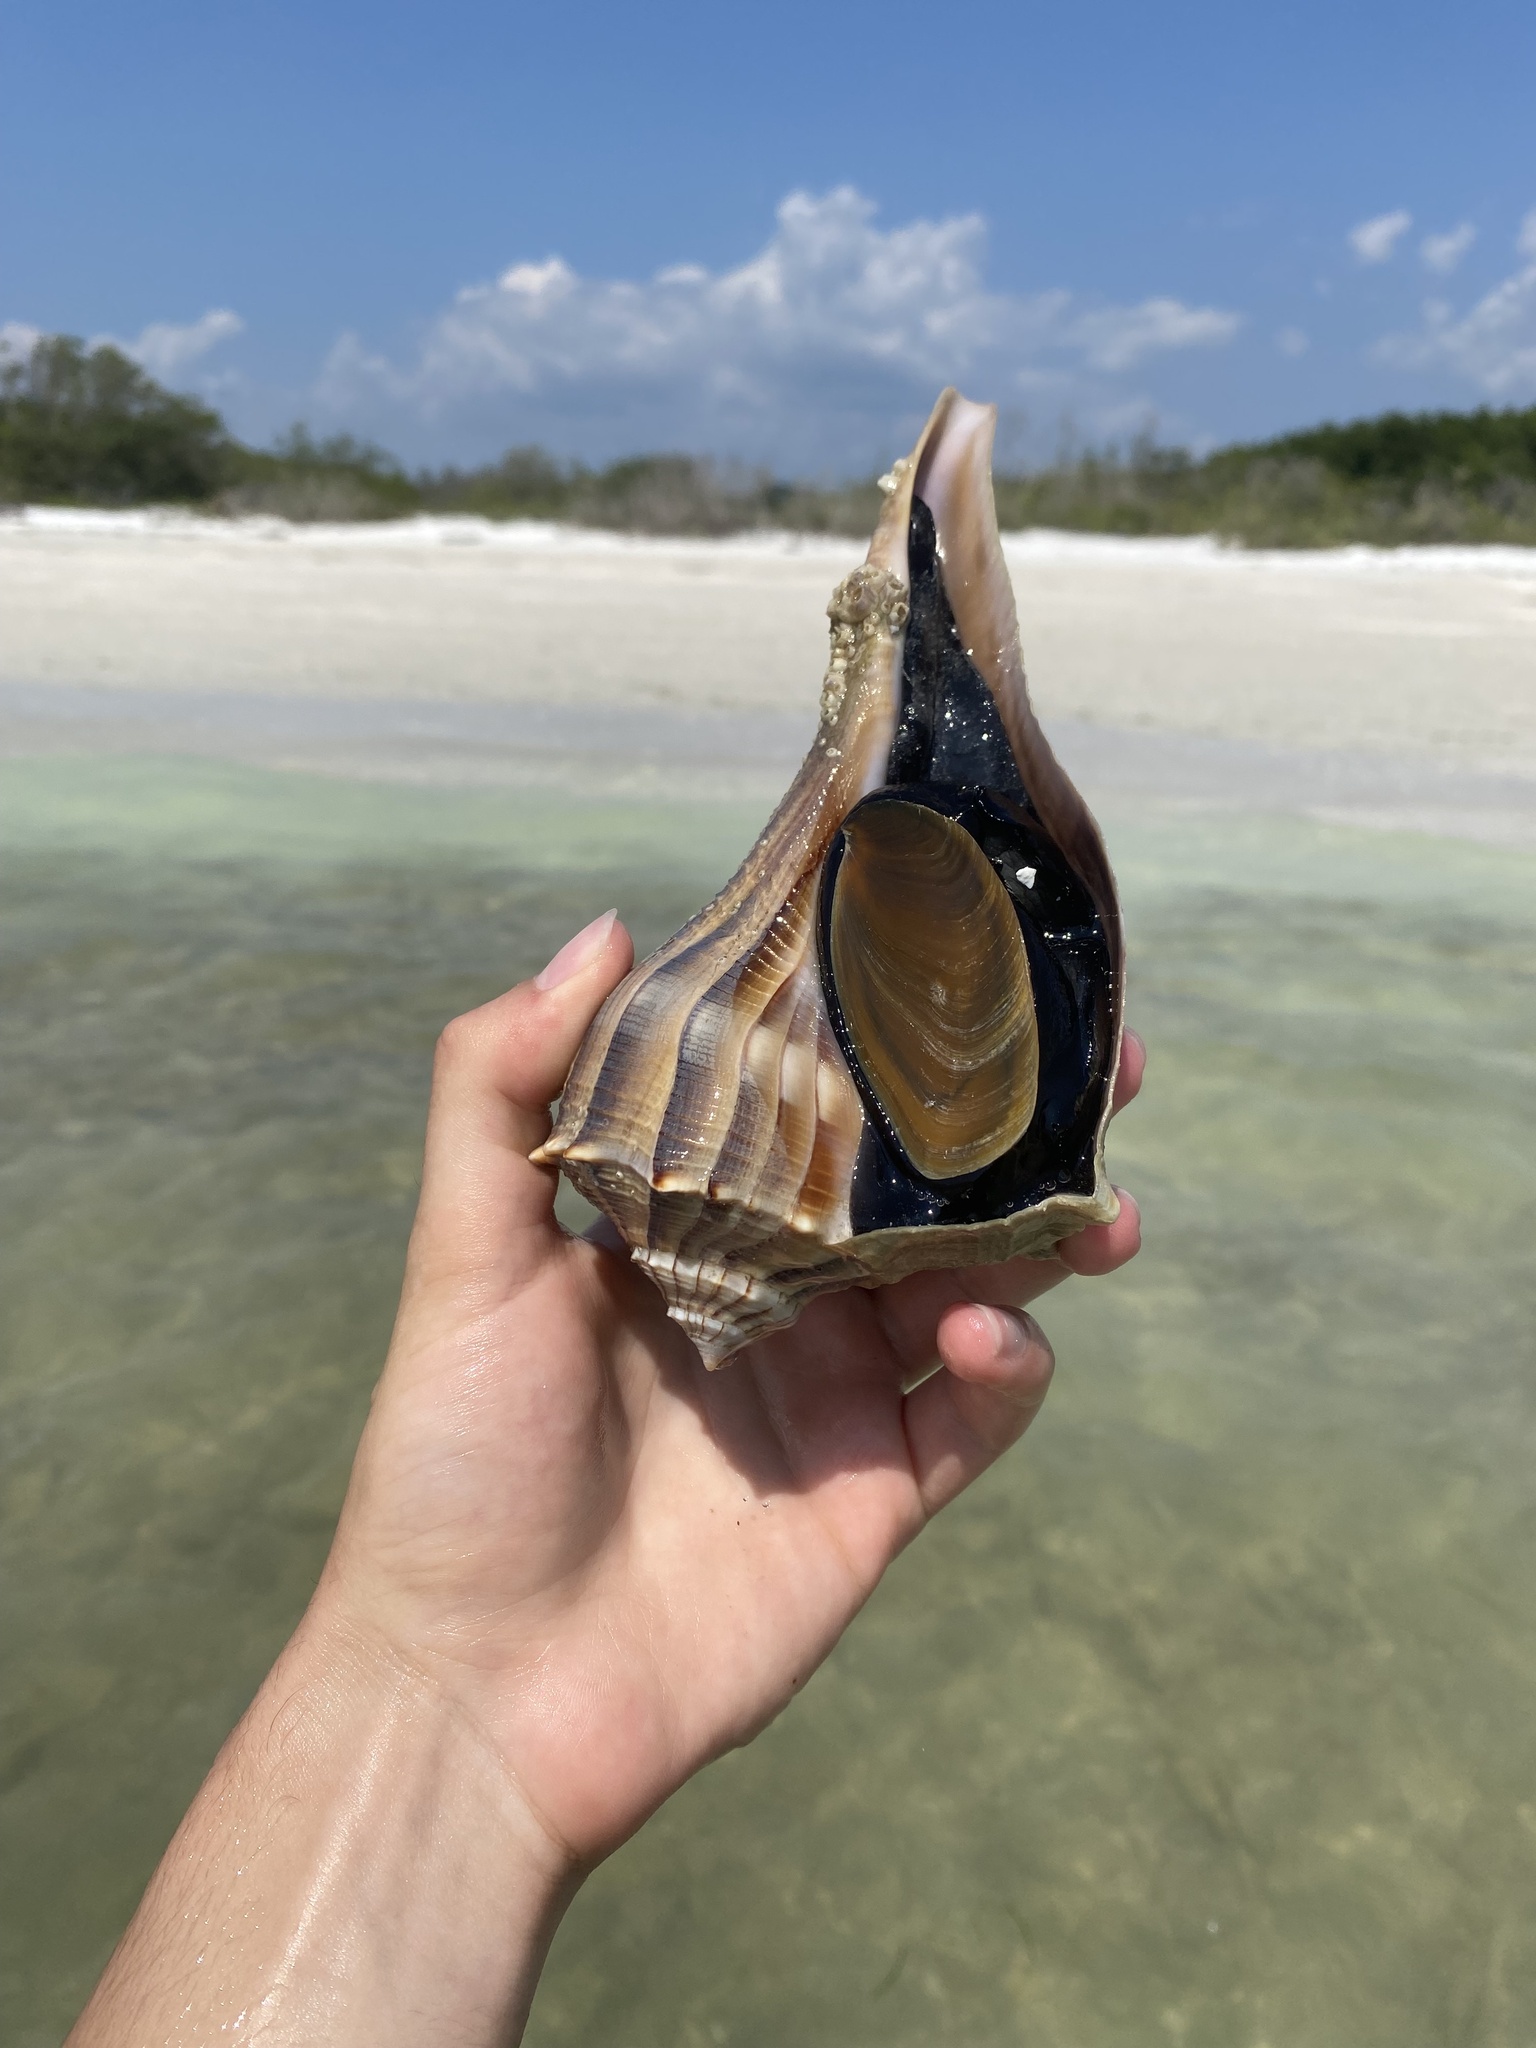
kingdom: Animalia
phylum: Mollusca
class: Gastropoda
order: Neogastropoda
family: Busyconidae
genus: Sinistrofulgur
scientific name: Sinistrofulgur sinistrum
